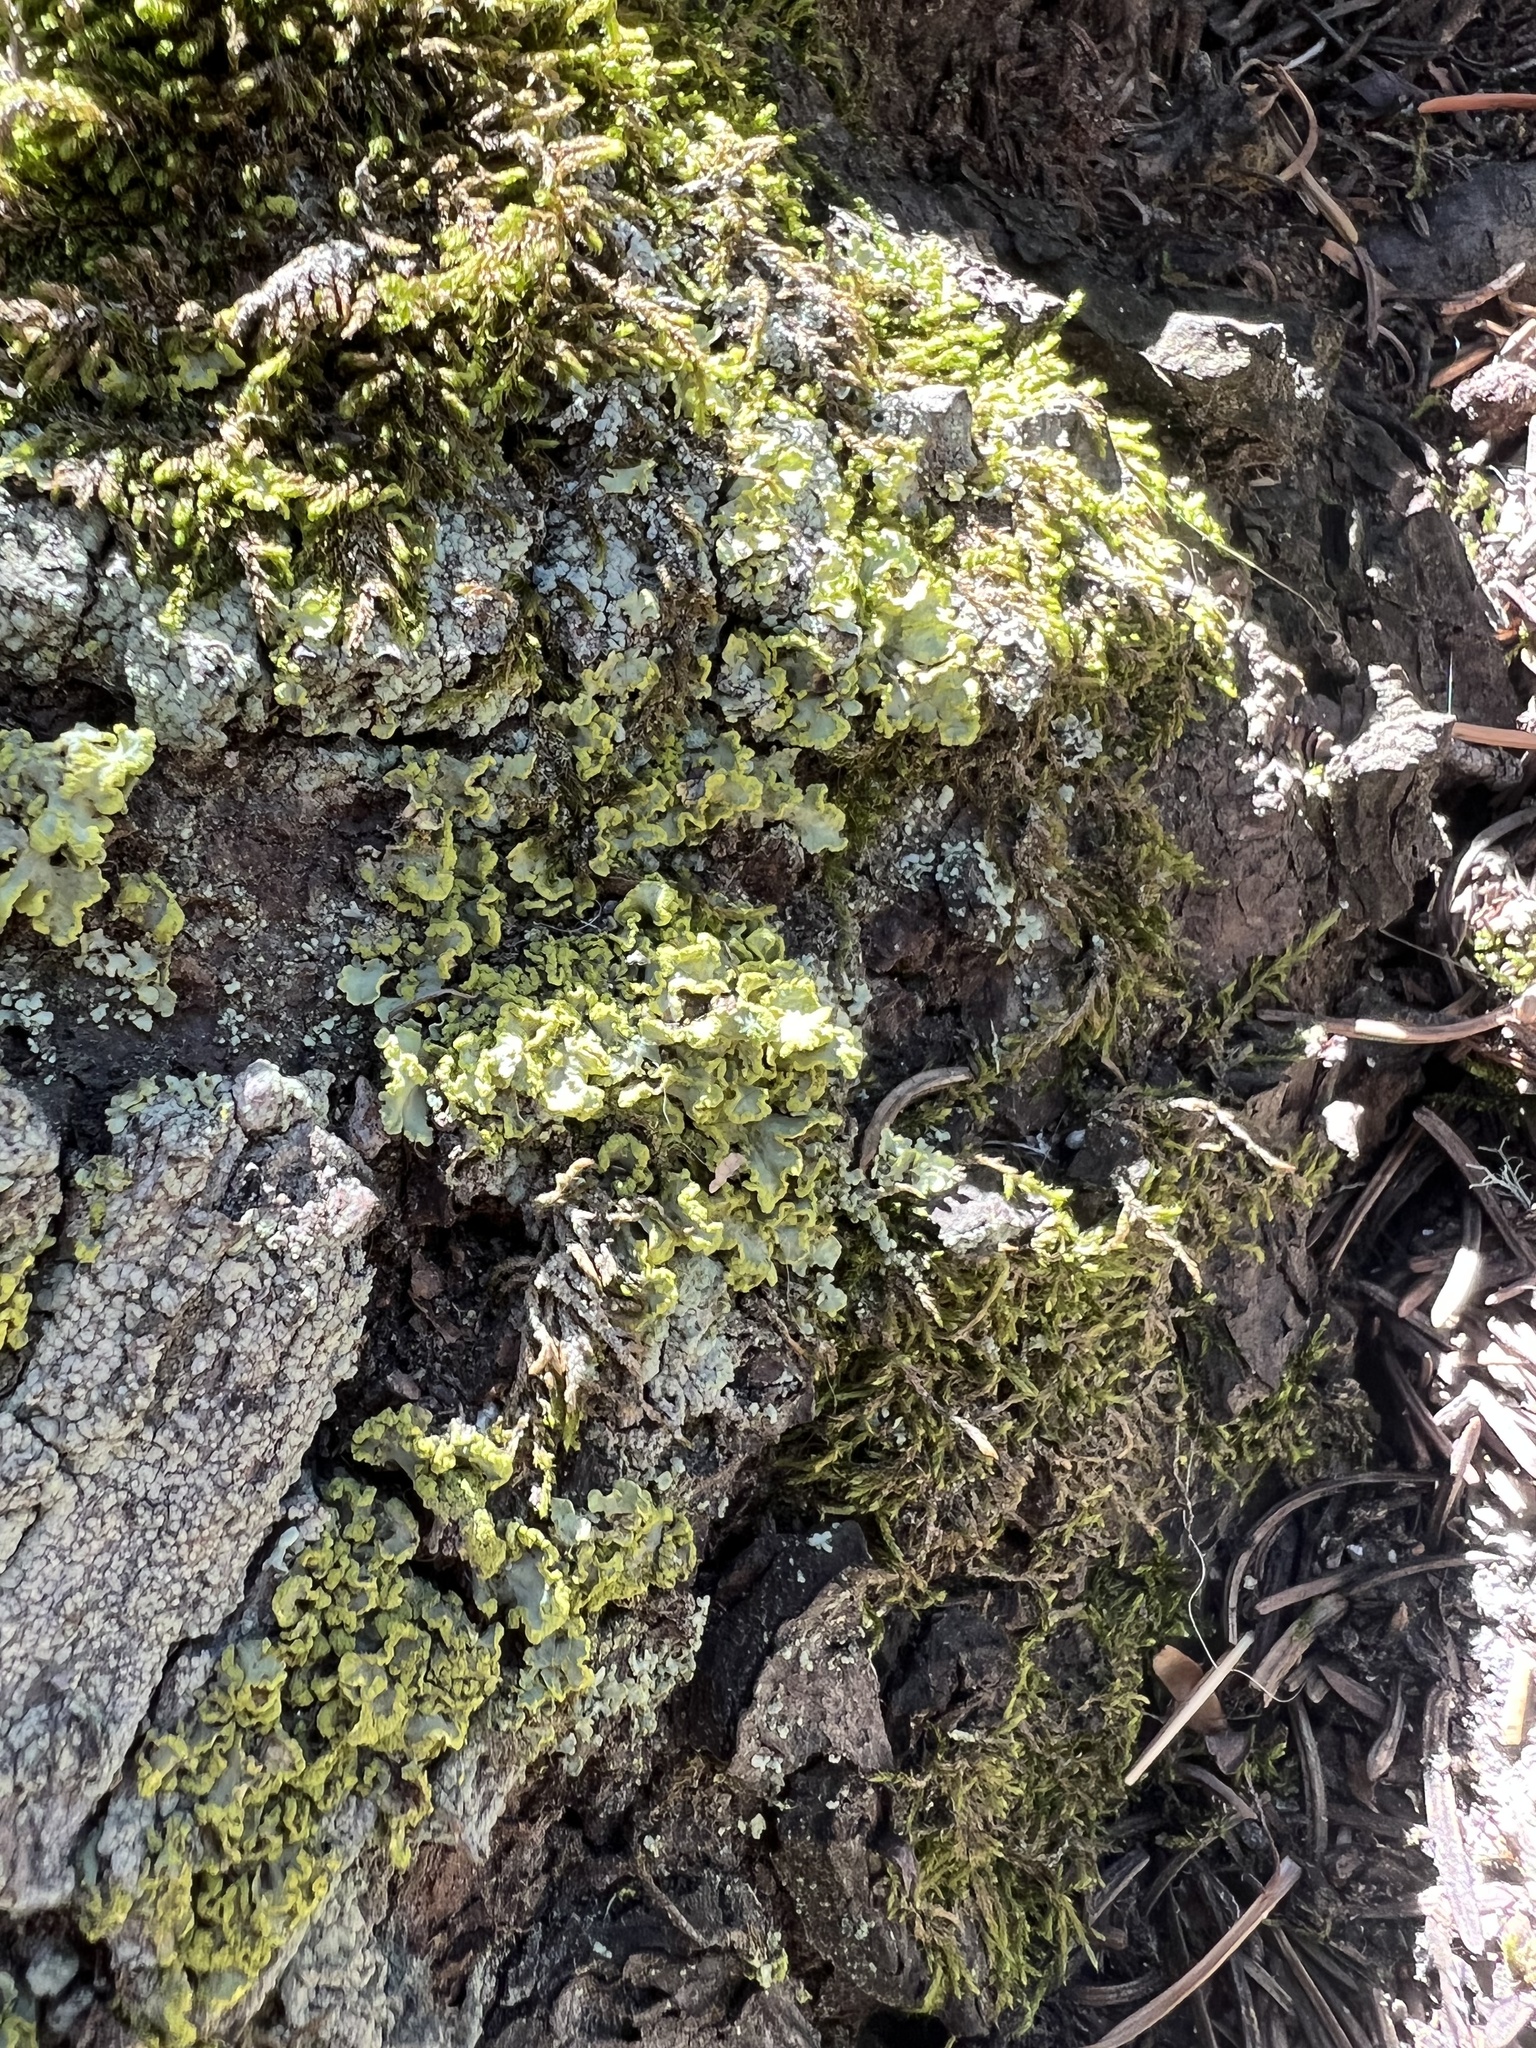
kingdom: Fungi
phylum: Ascomycota
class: Lecanoromycetes
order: Lecanorales
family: Parmeliaceae
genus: Vulpicida
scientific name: Vulpicida pinastri
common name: Powdered sunshine lichen
